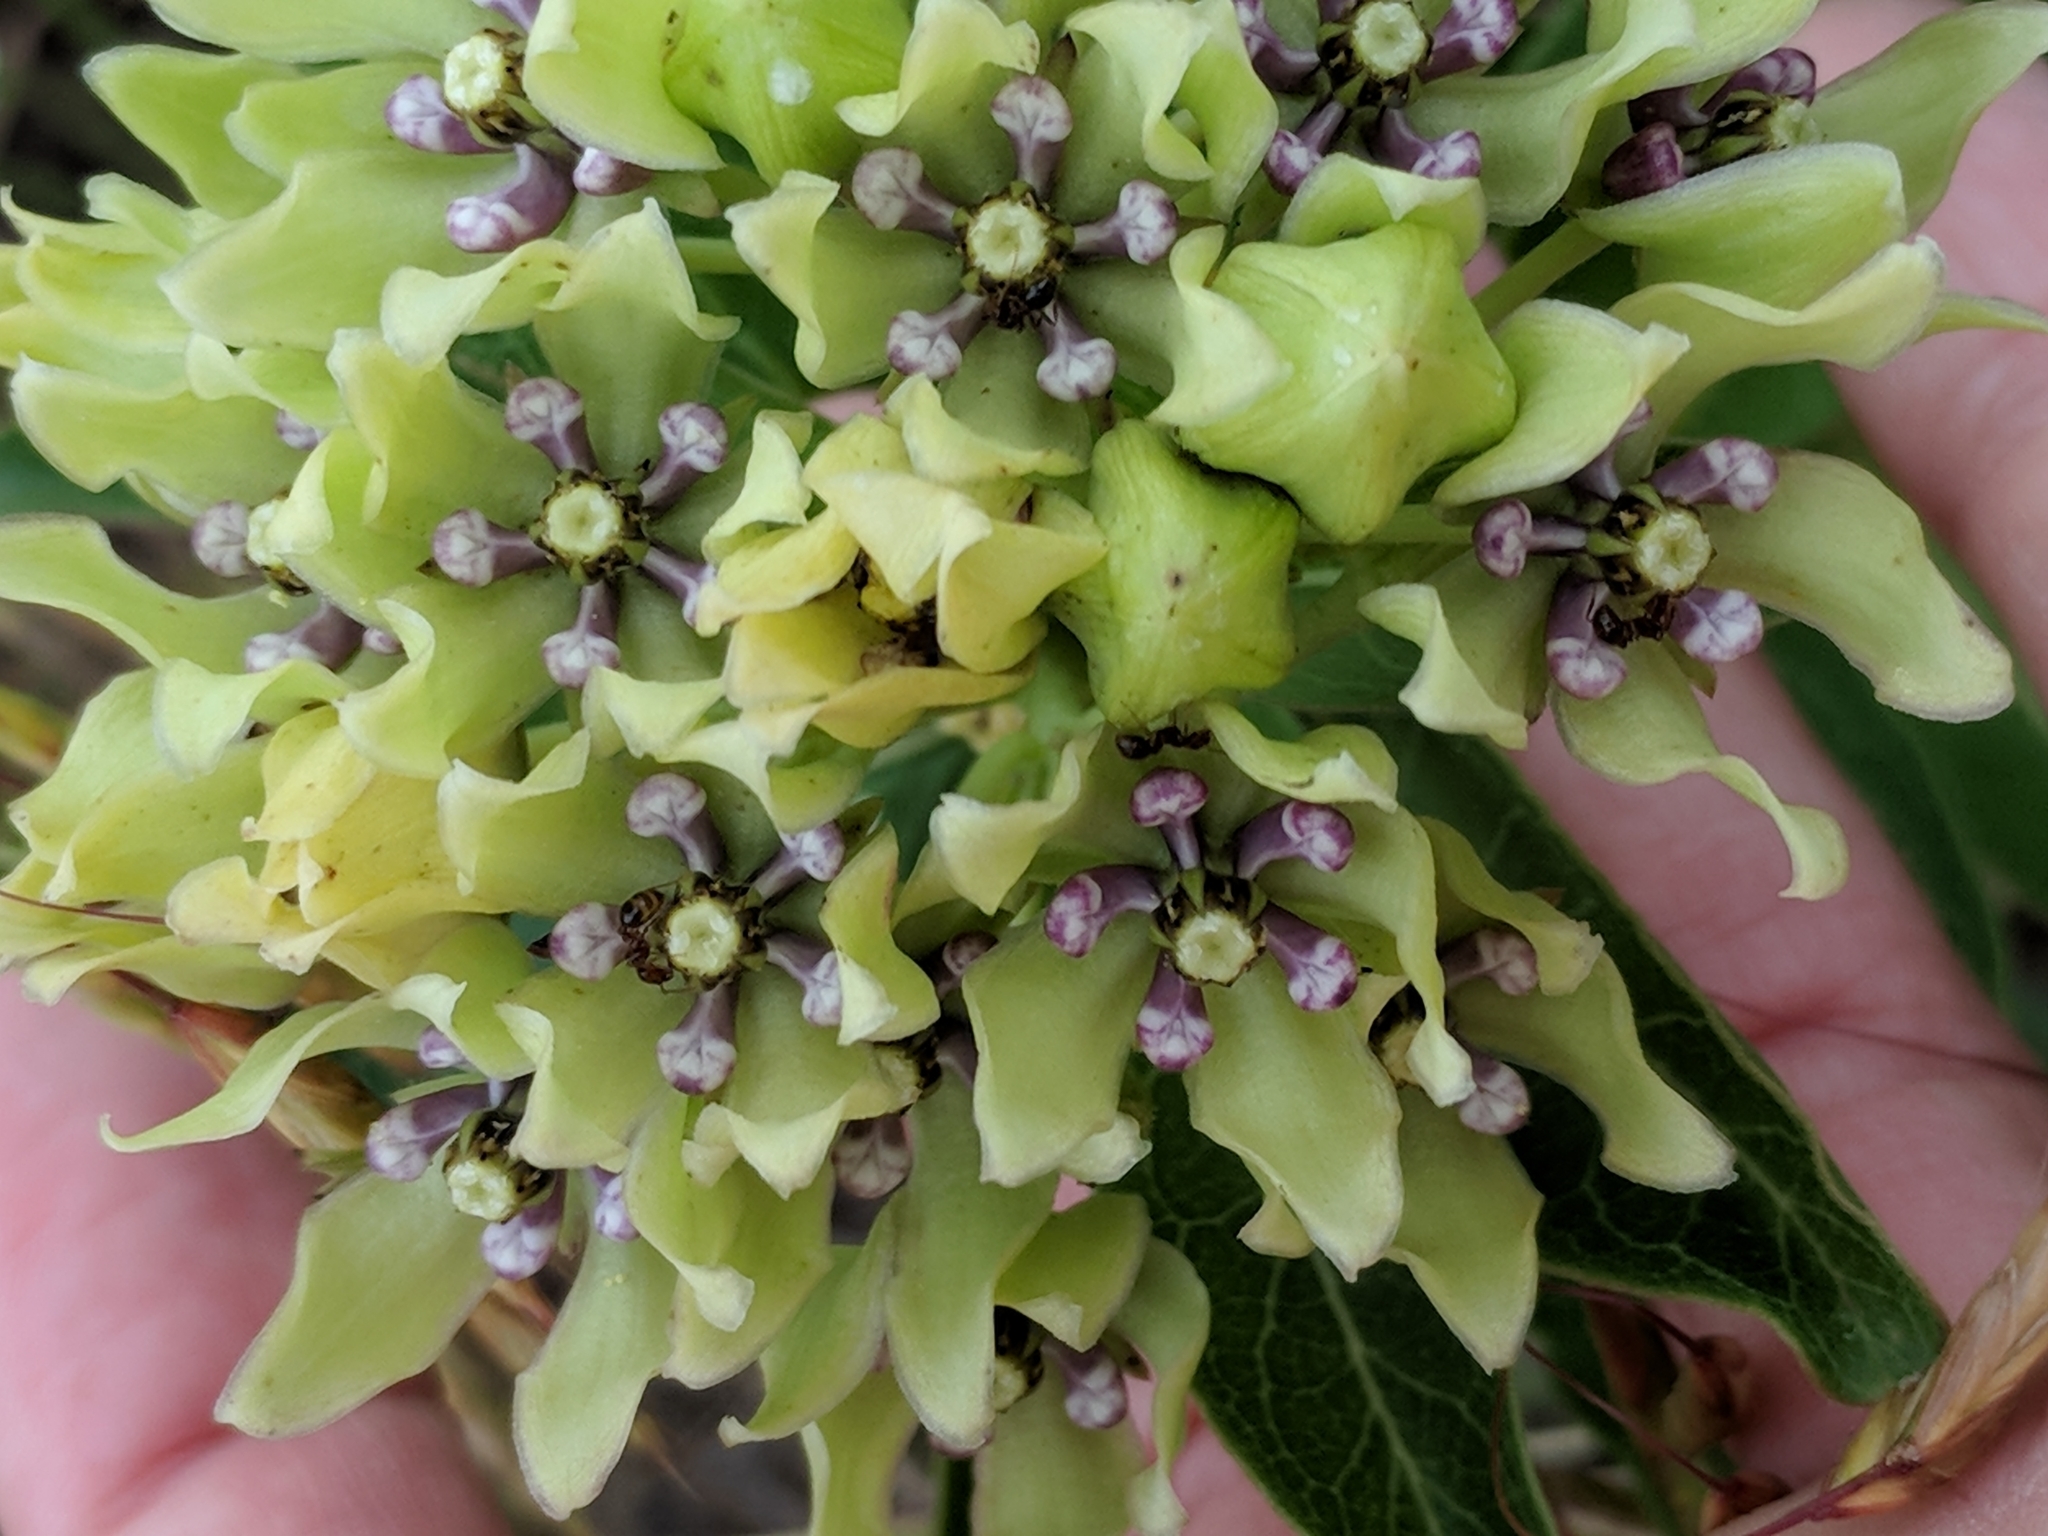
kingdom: Plantae
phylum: Tracheophyta
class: Magnoliopsida
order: Gentianales
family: Apocynaceae
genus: Asclepias
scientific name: Asclepias viridis
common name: Antelope-horns
